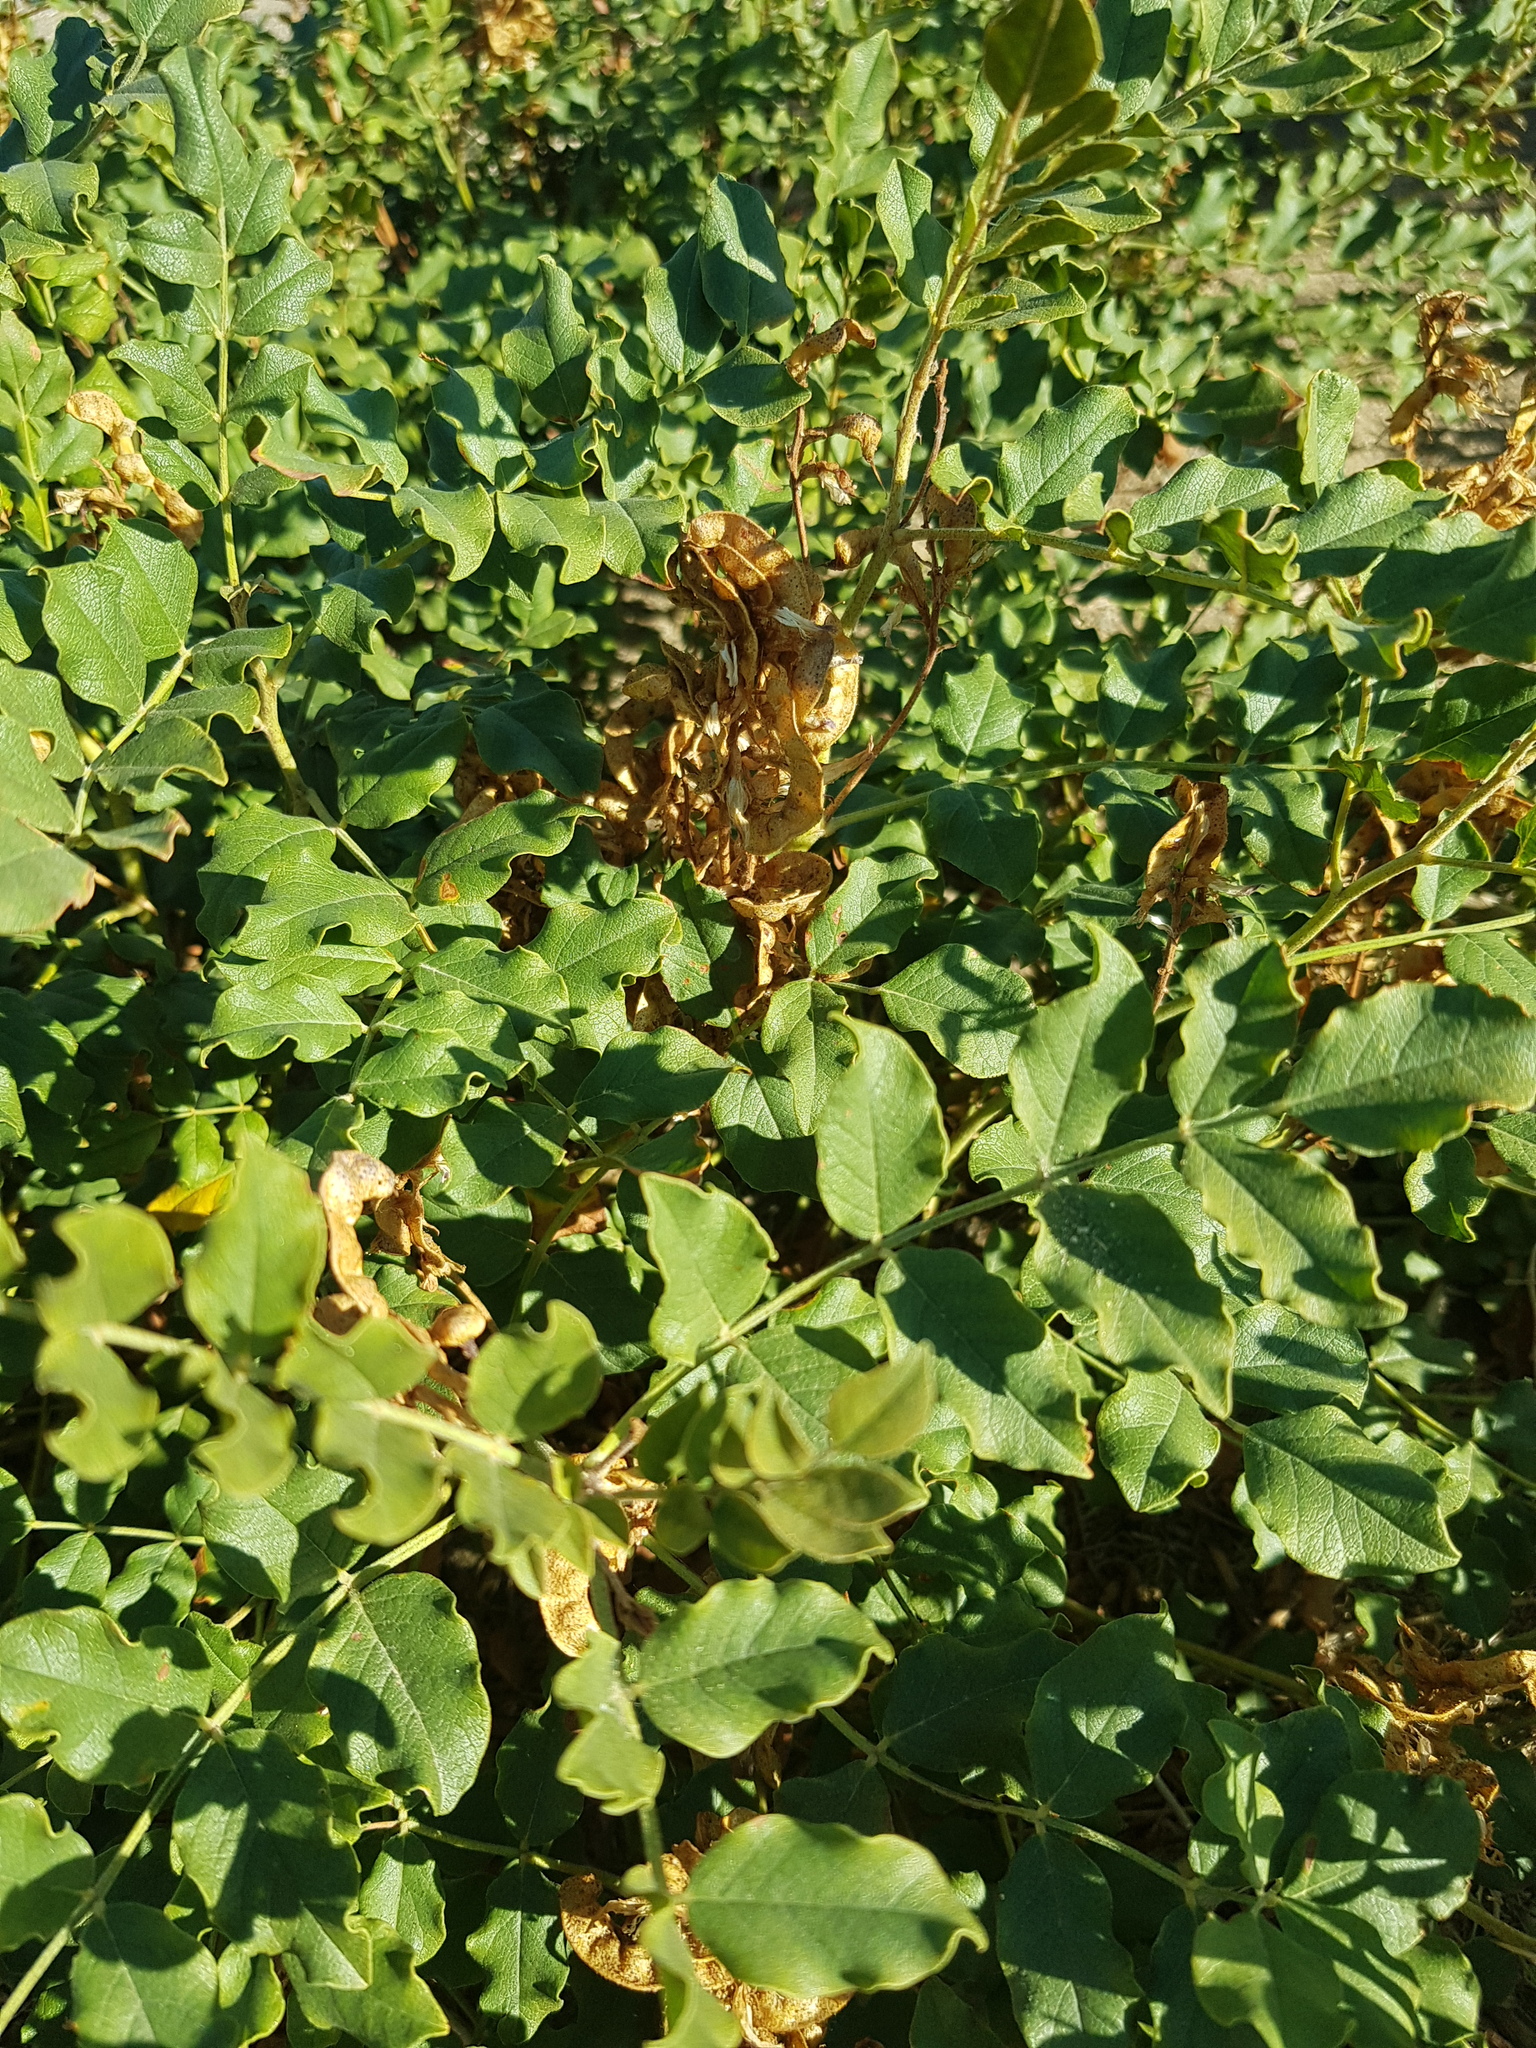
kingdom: Plantae
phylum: Tracheophyta
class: Magnoliopsida
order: Fabales
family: Fabaceae
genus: Glycyrrhiza
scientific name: Glycyrrhiza uralensis
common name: Chinese licorice
